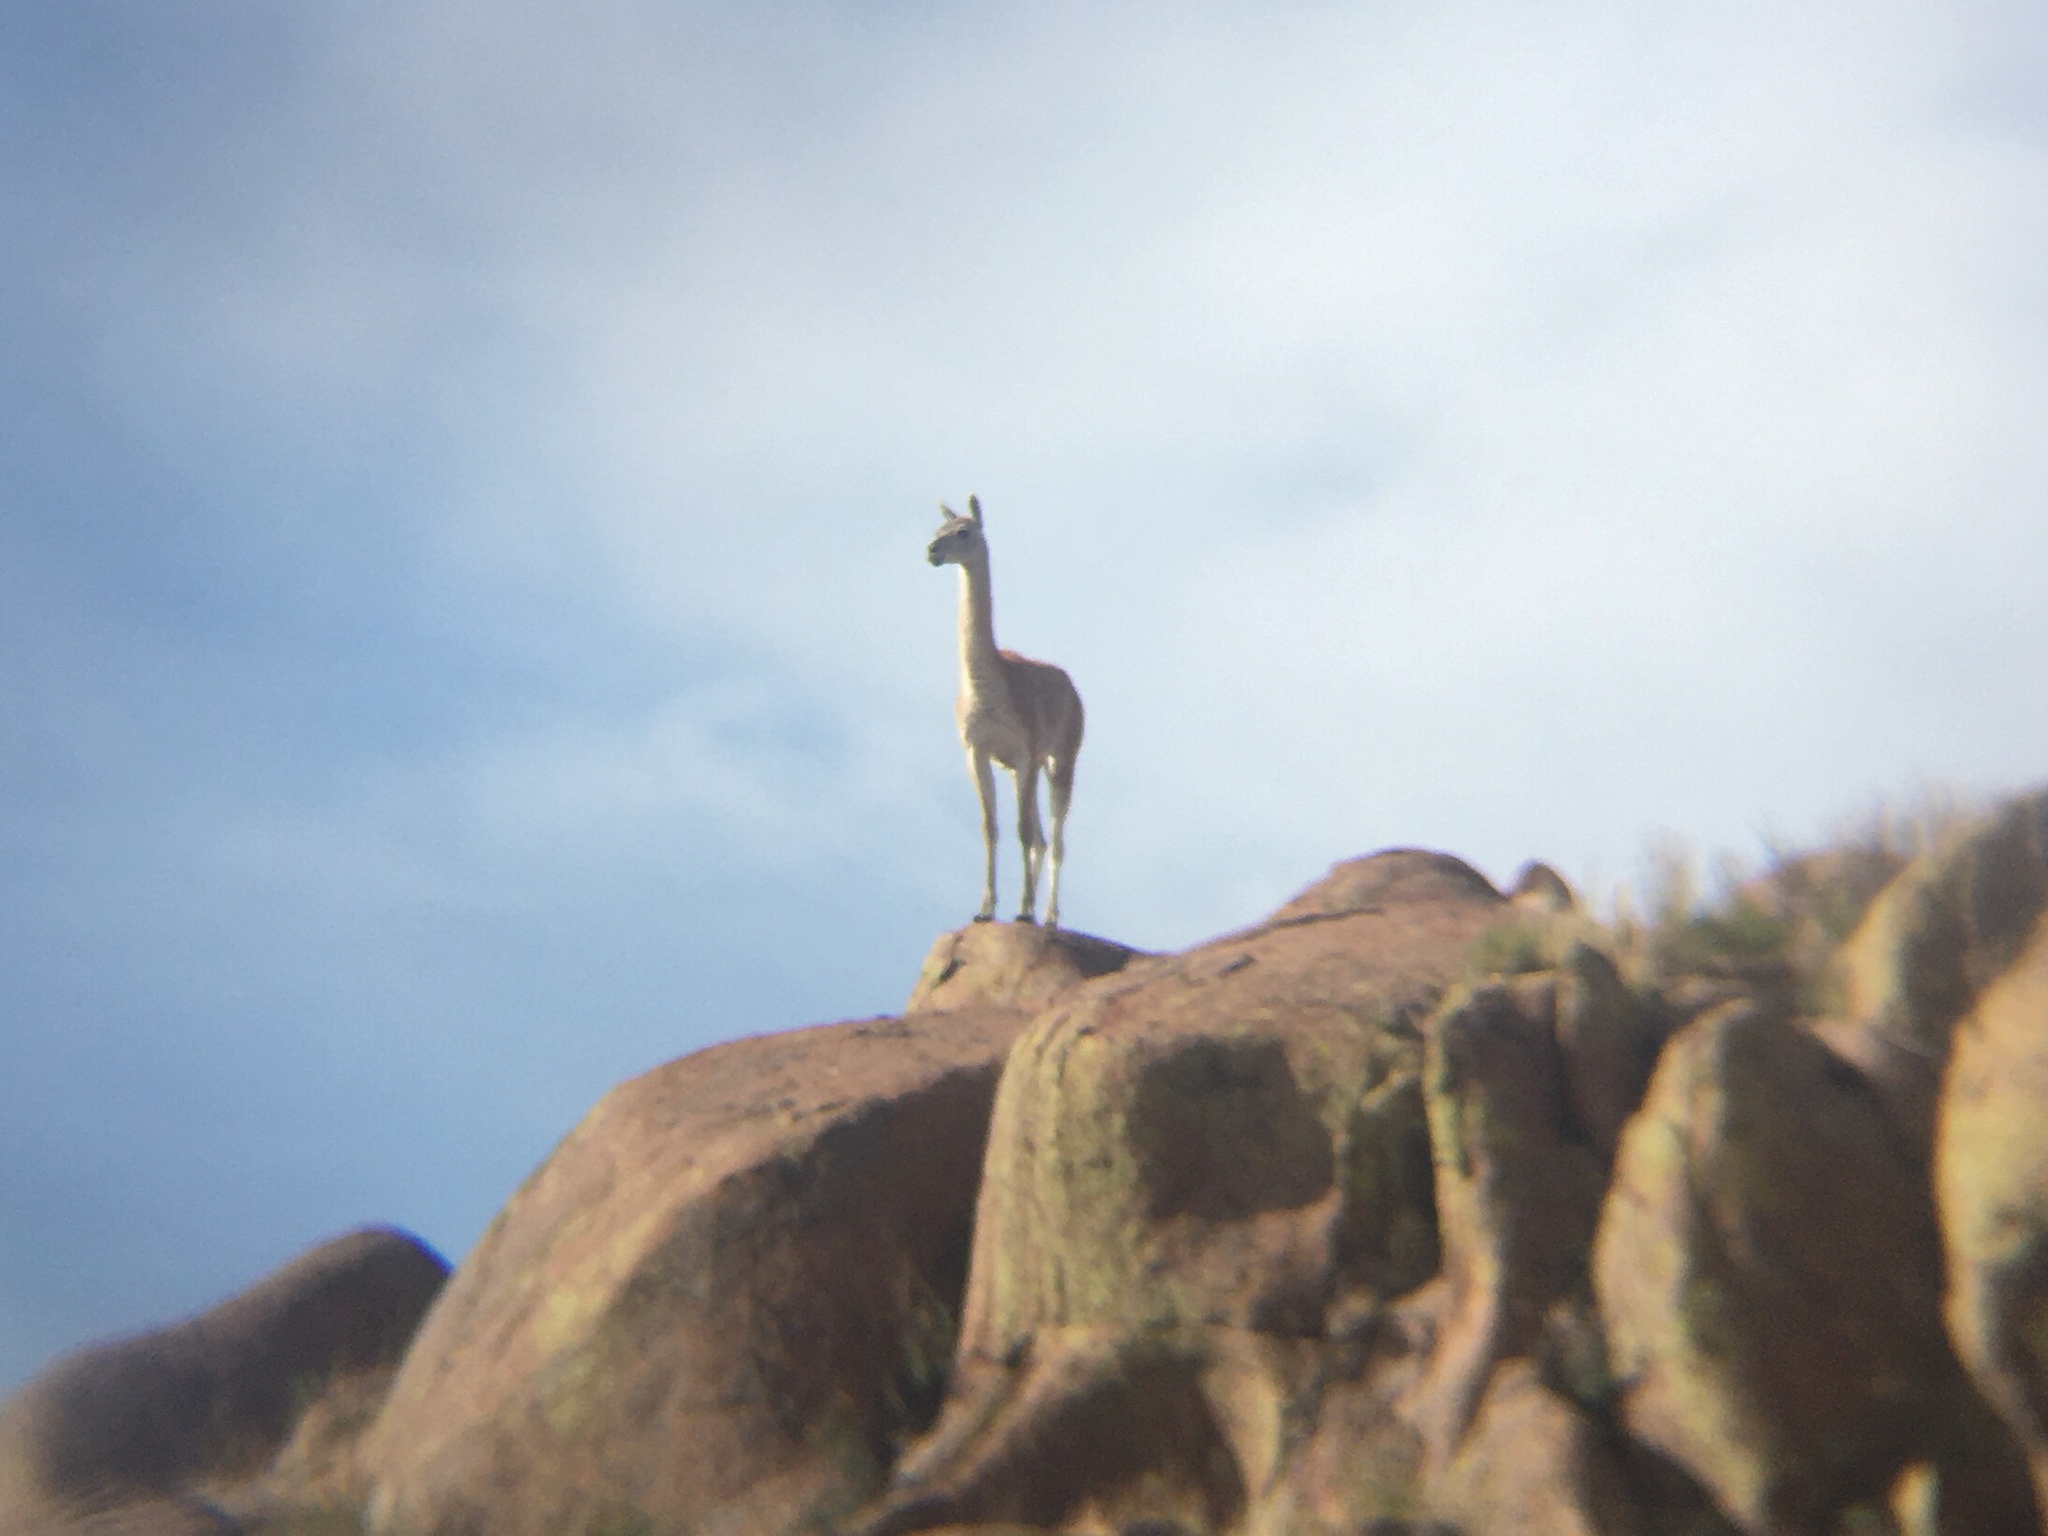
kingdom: Animalia
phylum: Chordata
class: Mammalia
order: Artiodactyla
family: Camelidae
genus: Lama
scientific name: Lama glama
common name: Llama
